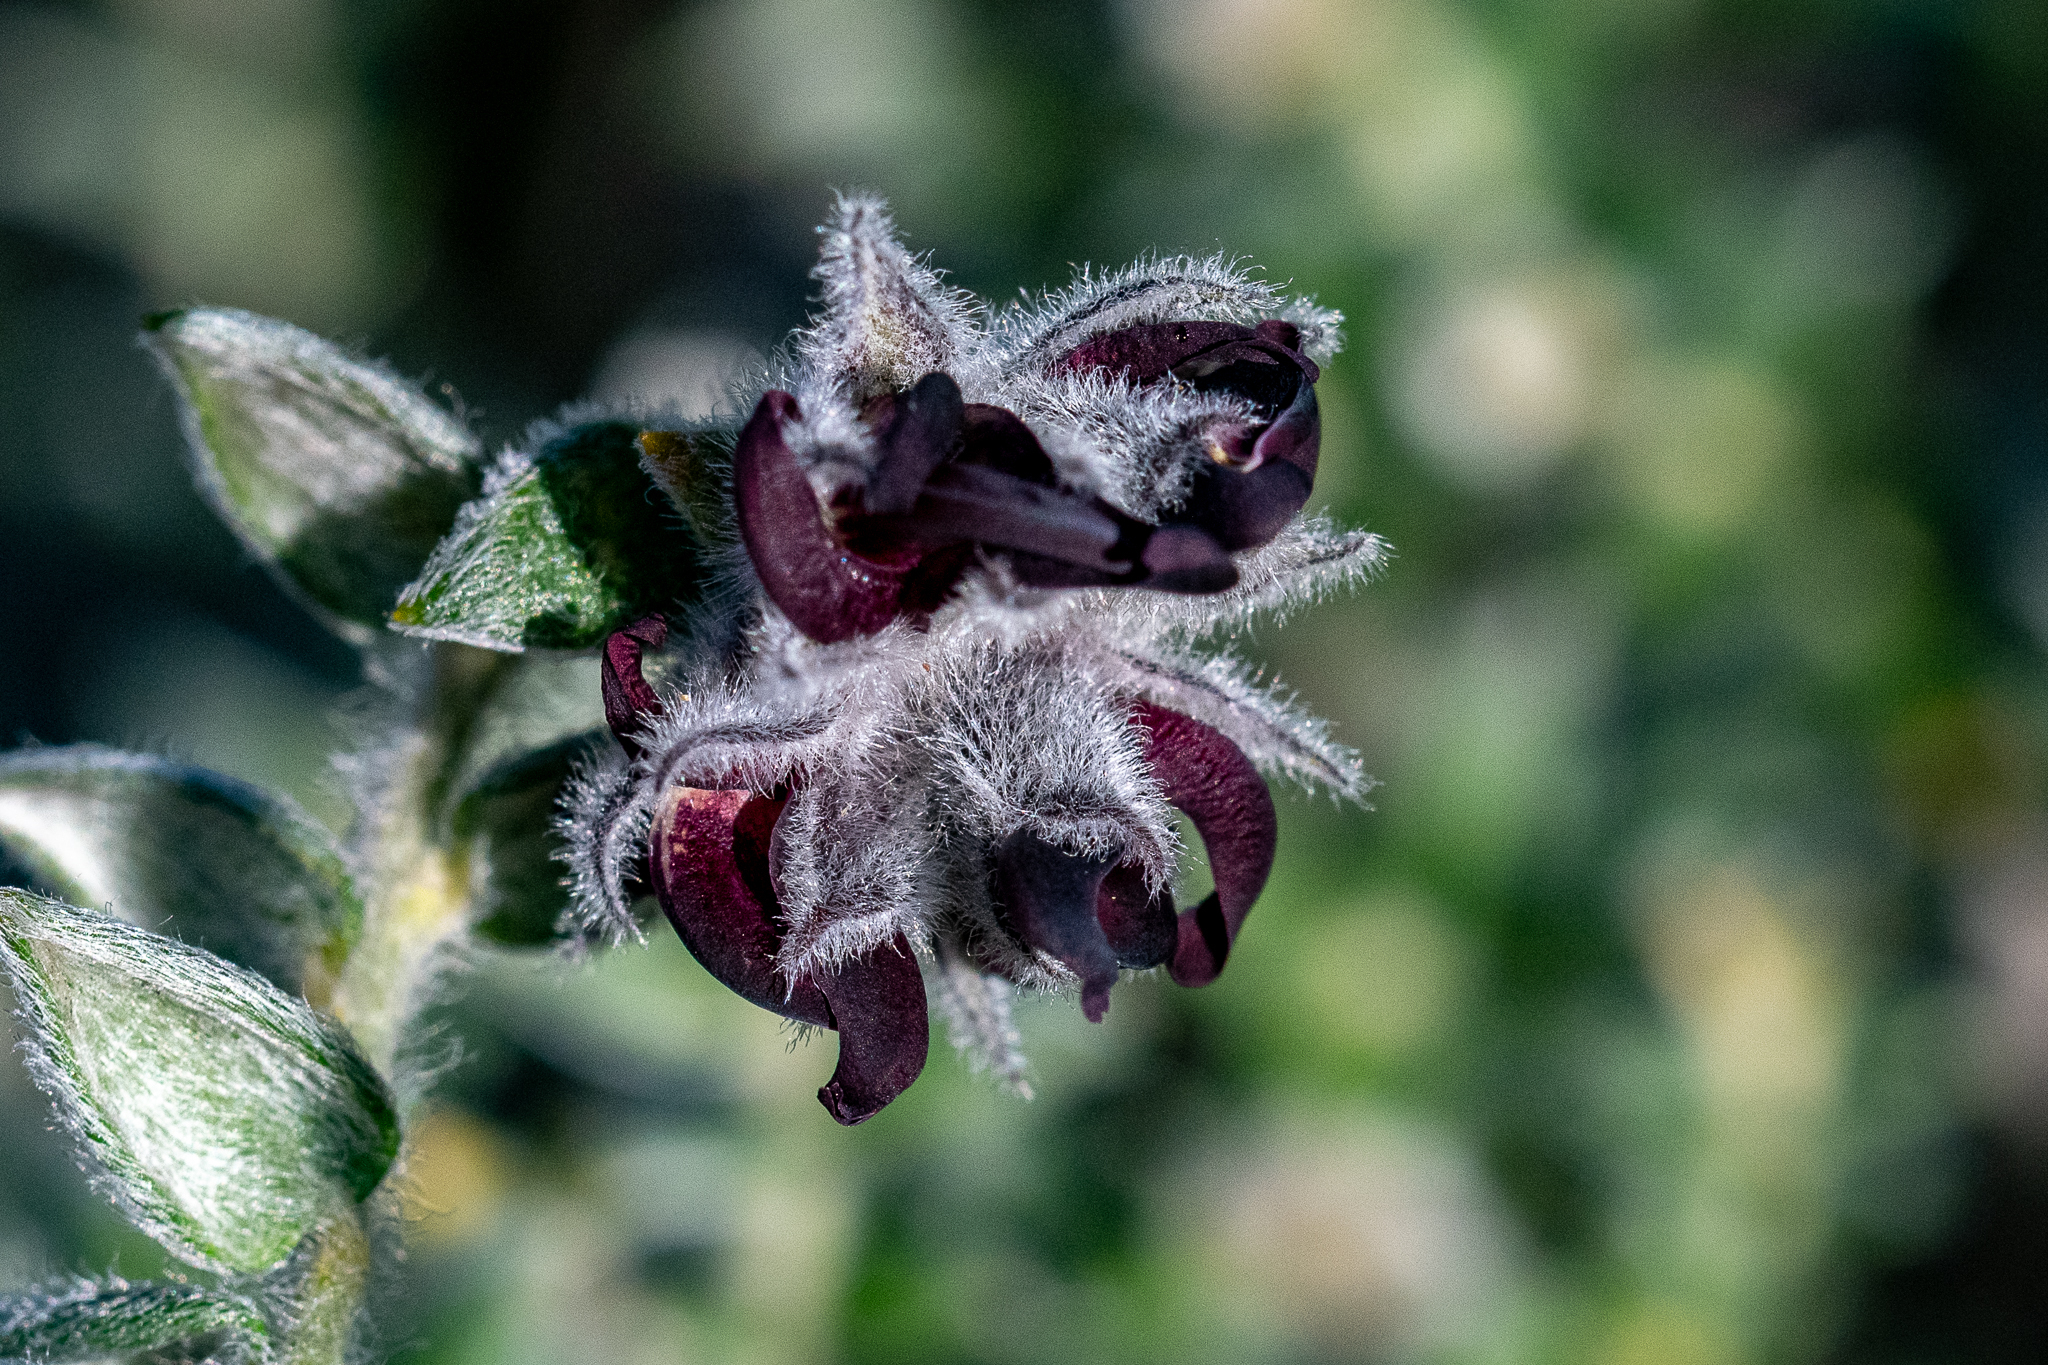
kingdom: Plantae
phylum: Tracheophyta
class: Magnoliopsida
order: Fabales
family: Fabaceae
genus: Amphithalea
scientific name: Amphithalea rostrata
